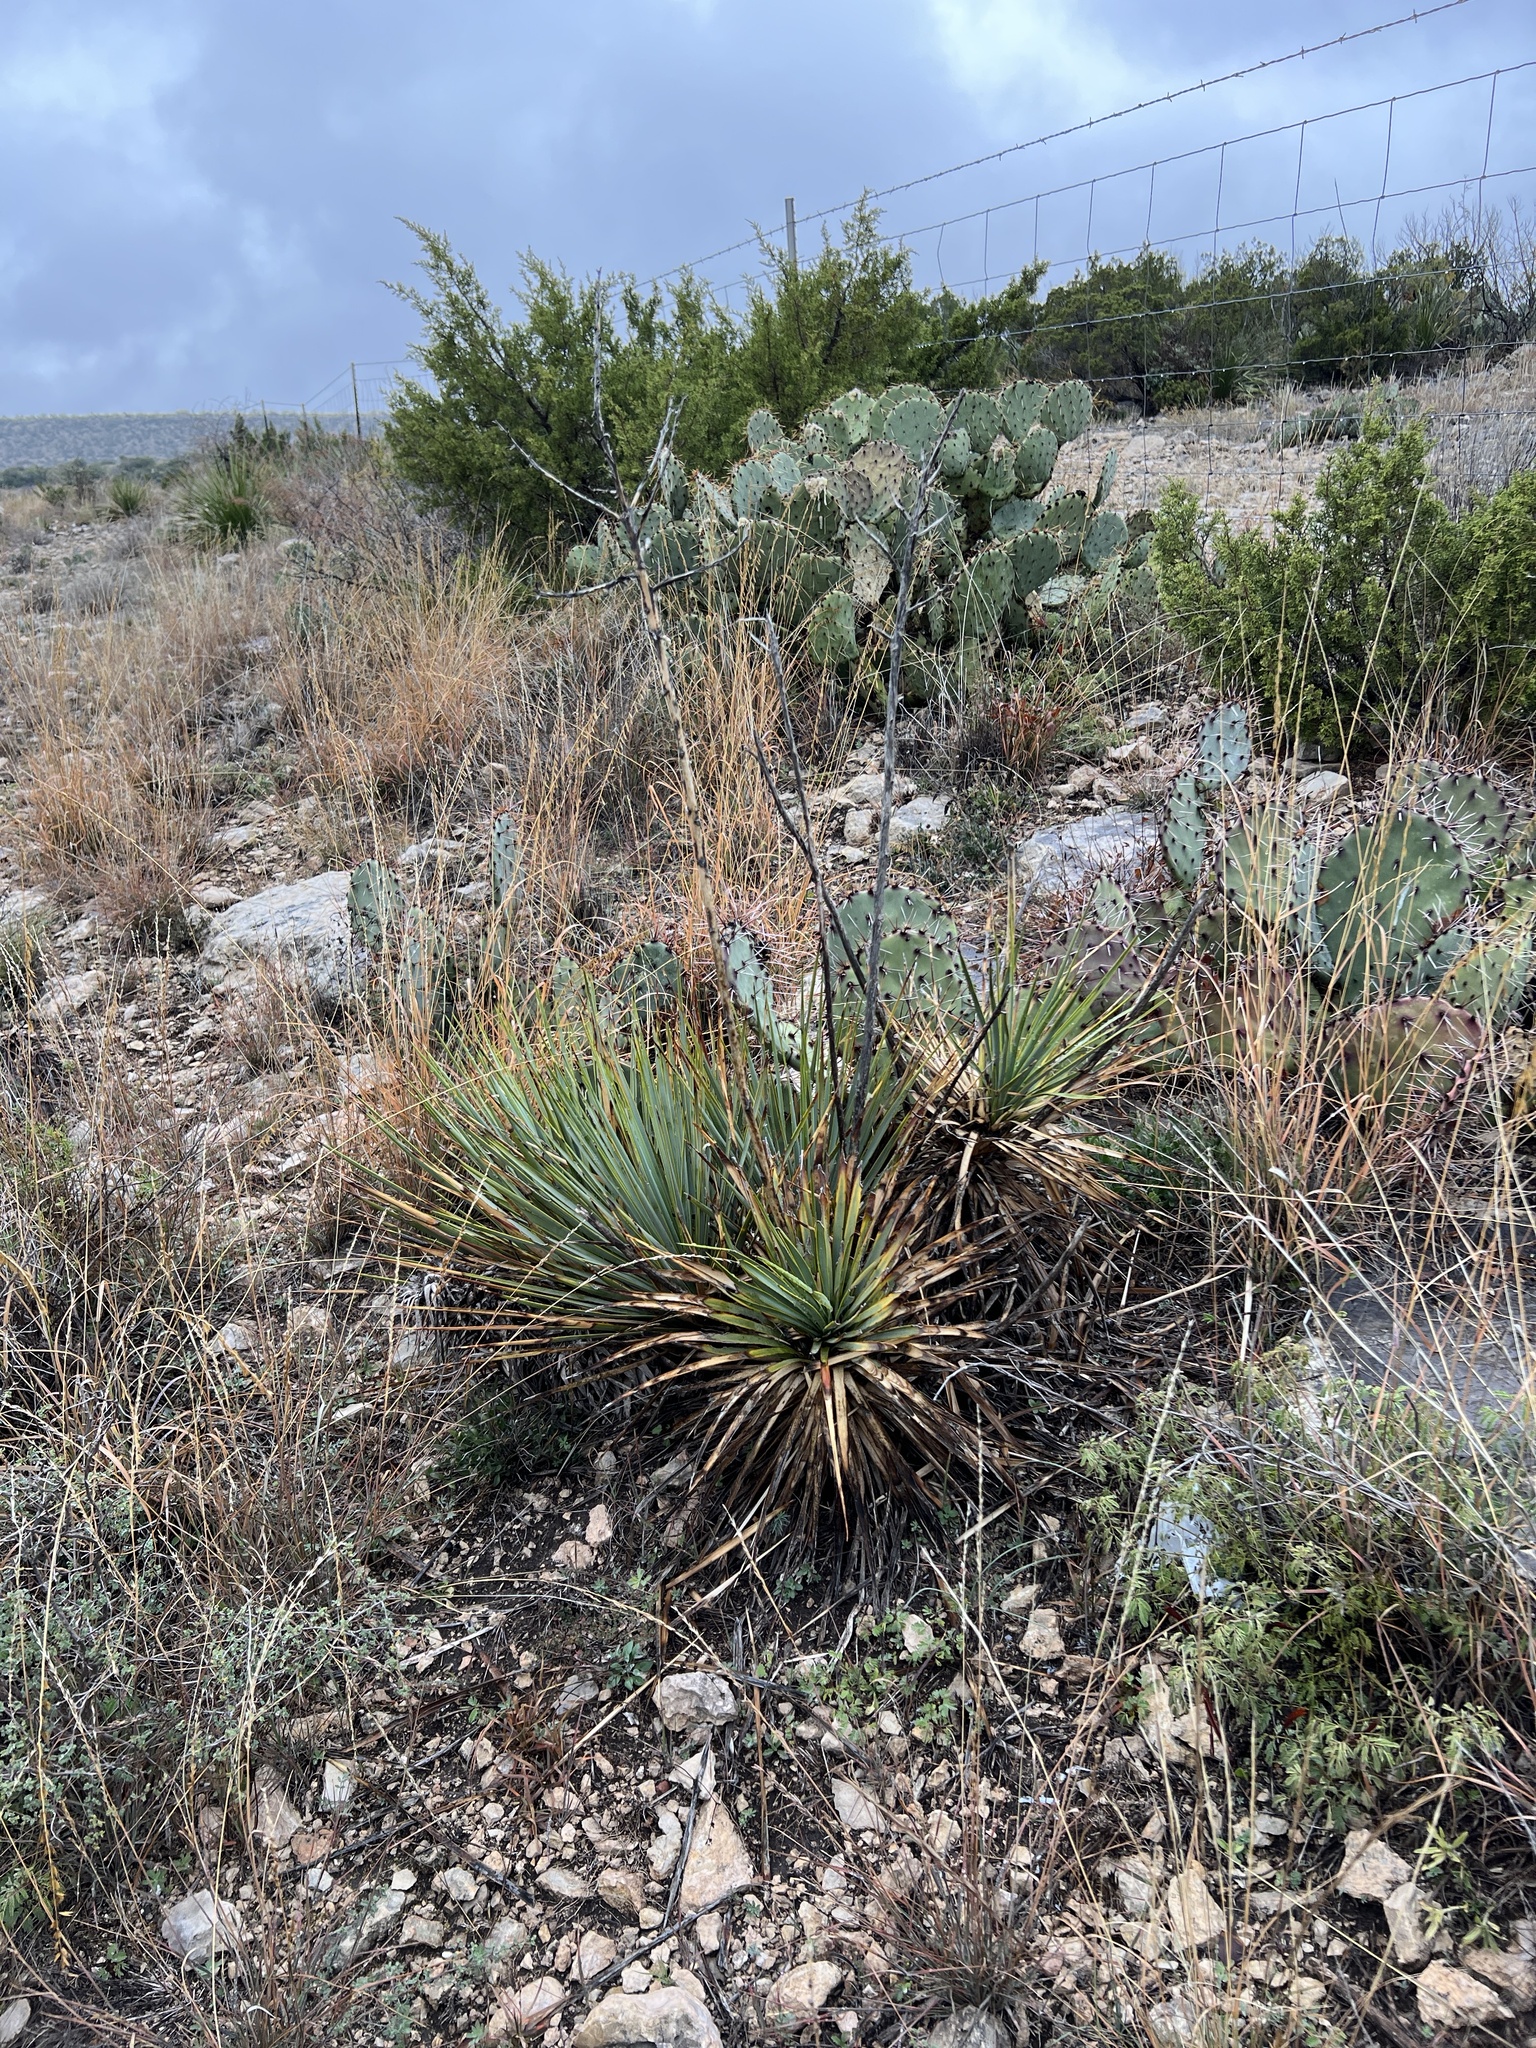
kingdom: Plantae
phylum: Tracheophyta
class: Liliopsida
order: Asparagales
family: Asparagaceae
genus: Yucca
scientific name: Yucca reverchonii
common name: San angelo yucca
